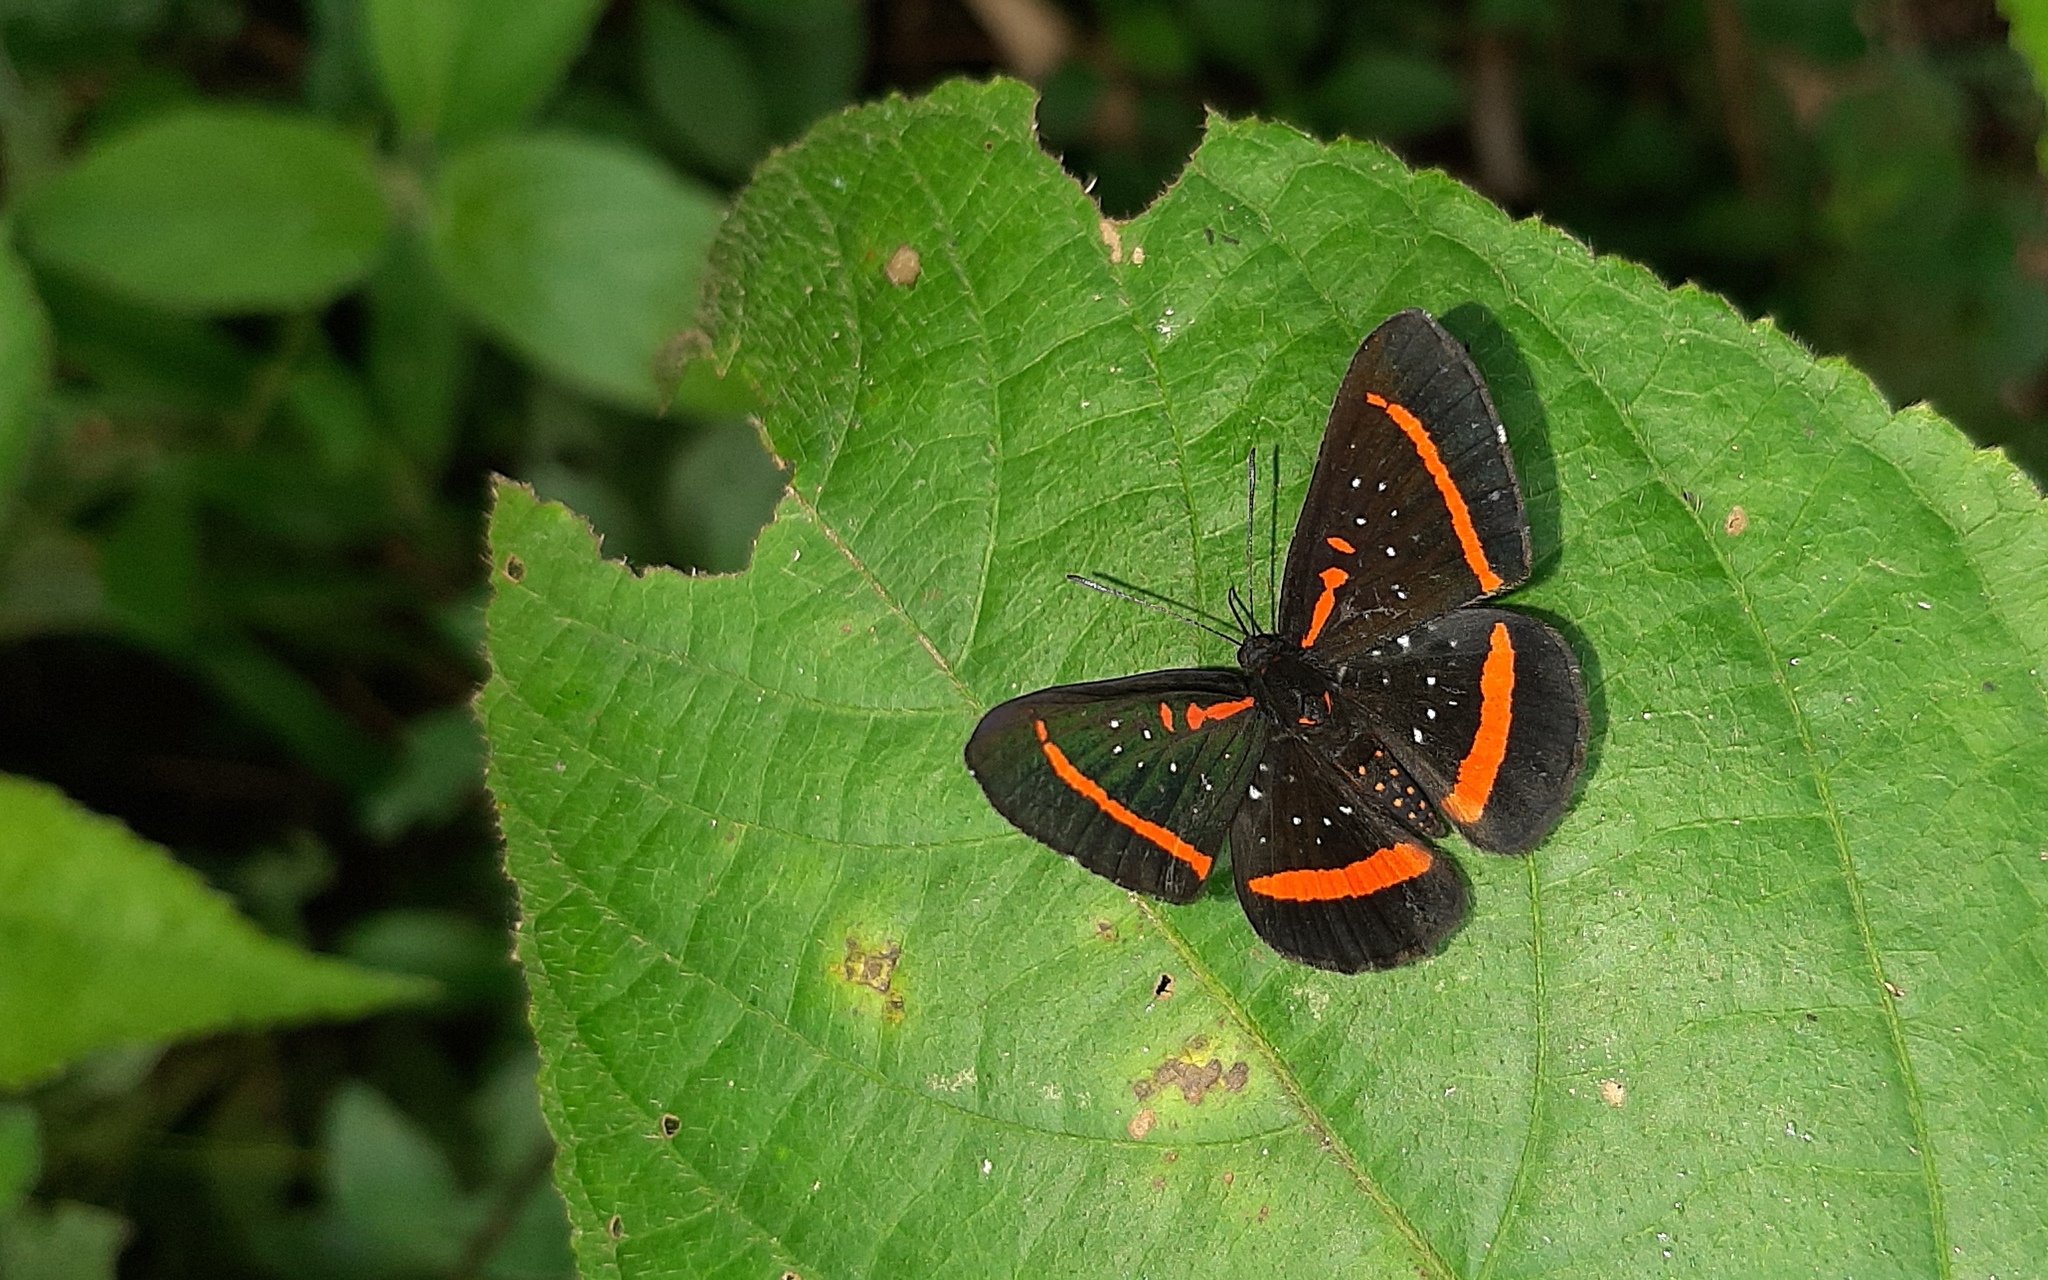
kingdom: Animalia
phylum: Arthropoda
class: Insecta
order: Lepidoptera
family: Riodinidae
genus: Amarynthis
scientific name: Amarynthis meneria
